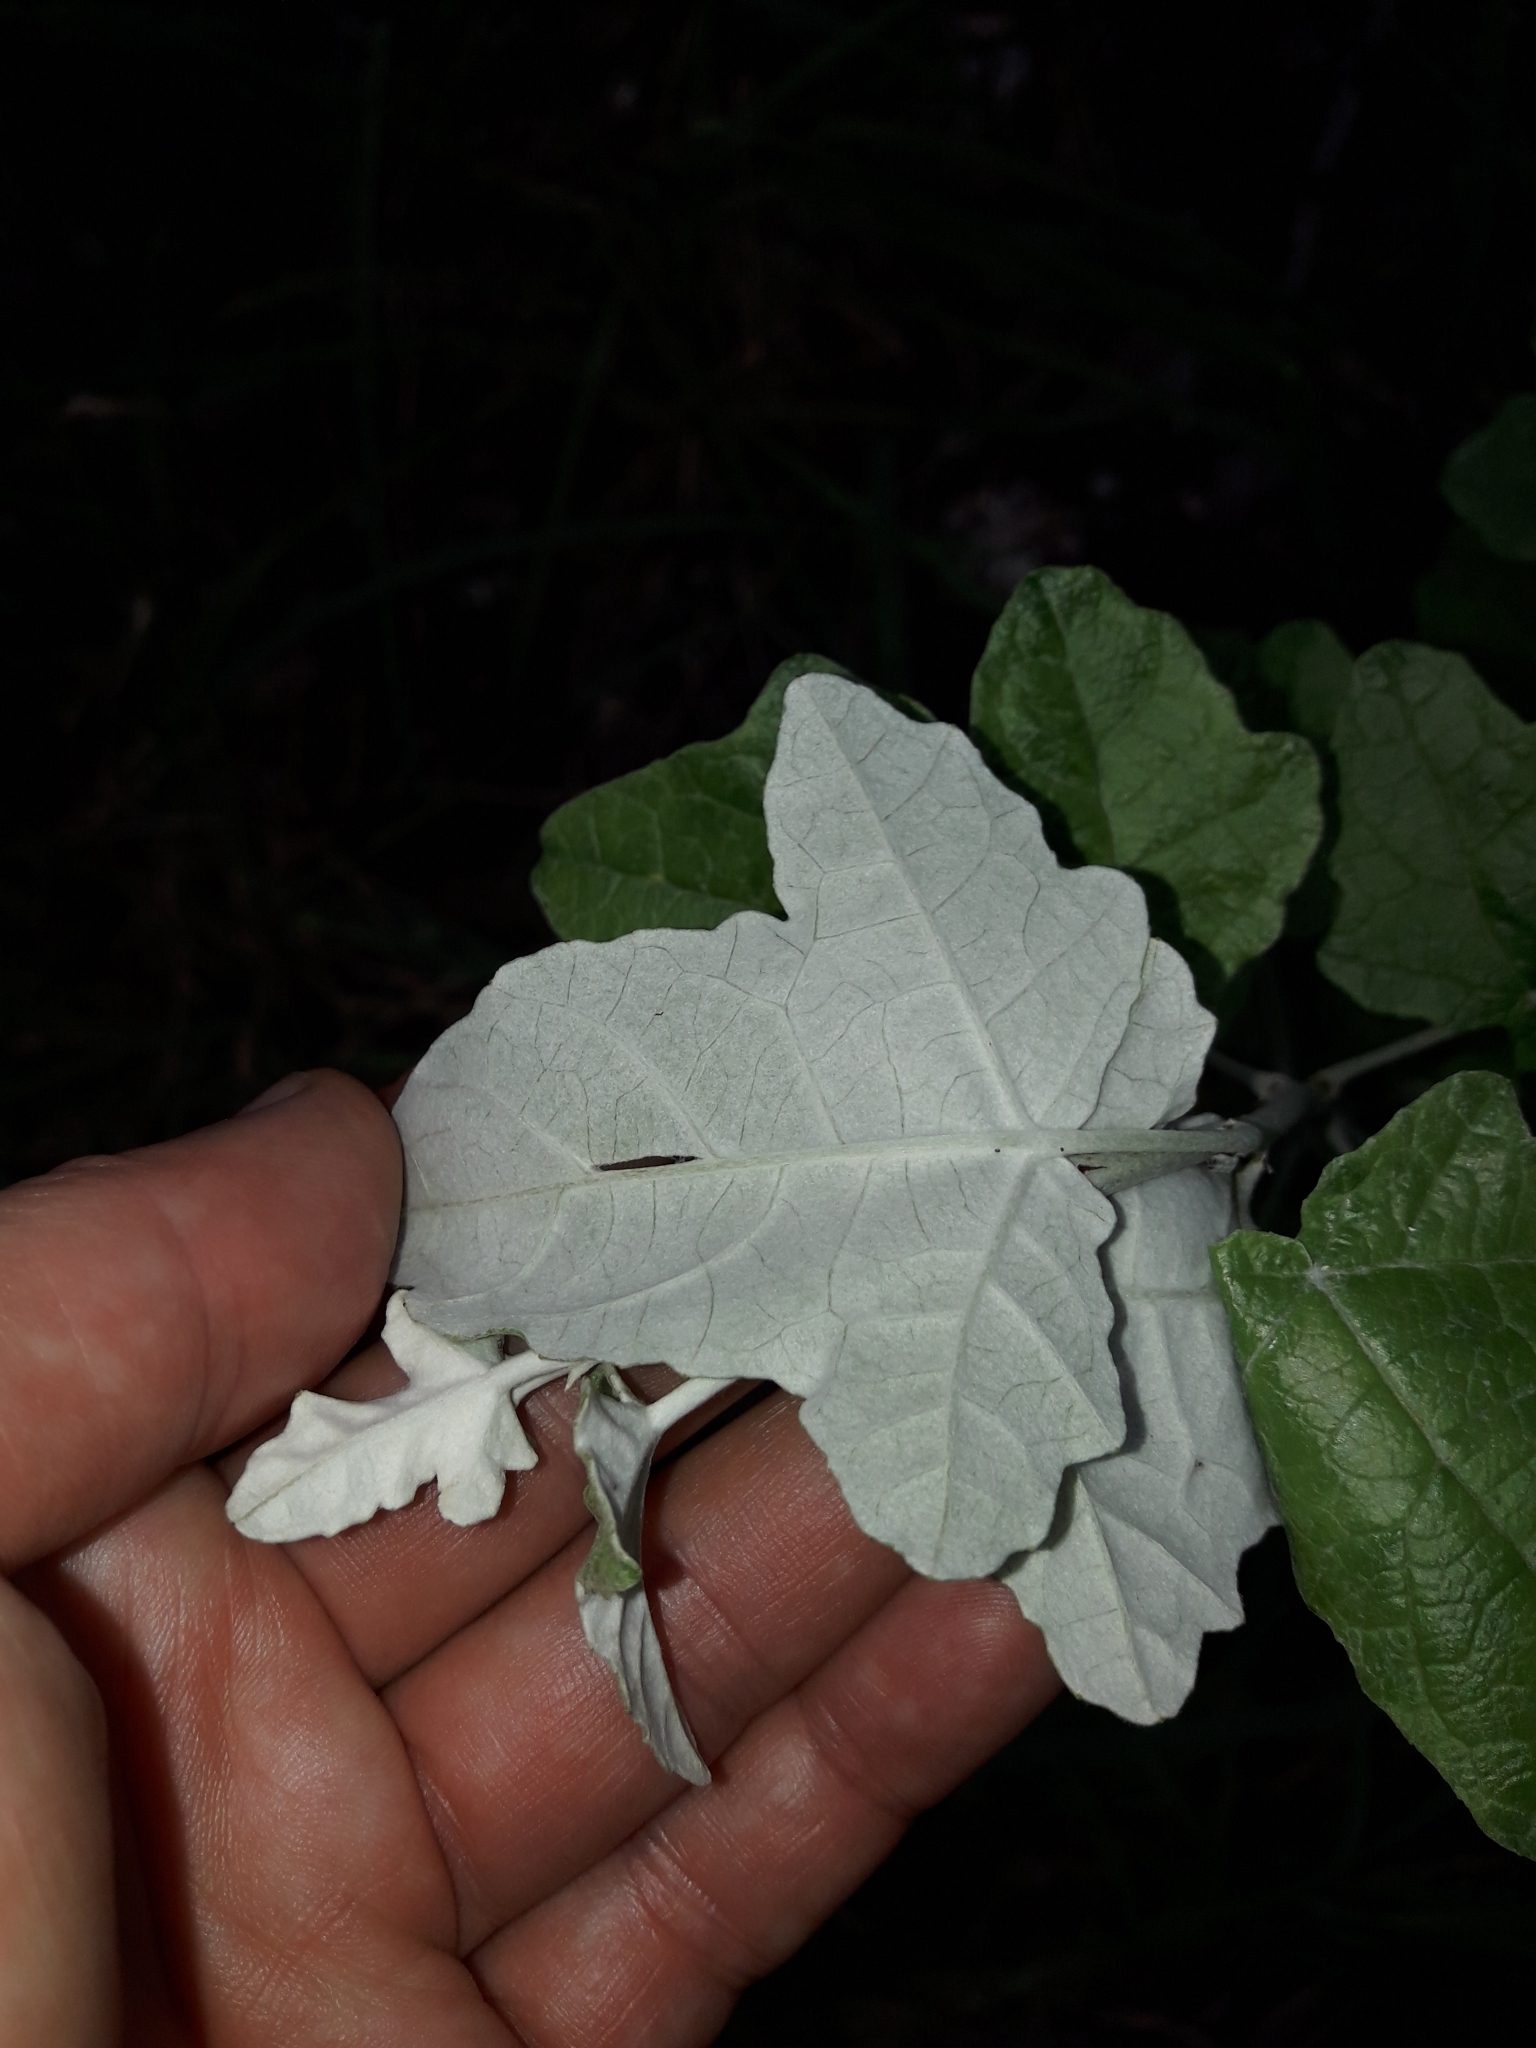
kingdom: Plantae
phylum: Tracheophyta
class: Magnoliopsida
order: Malpighiales
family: Salicaceae
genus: Populus
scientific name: Populus alba
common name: White poplar
